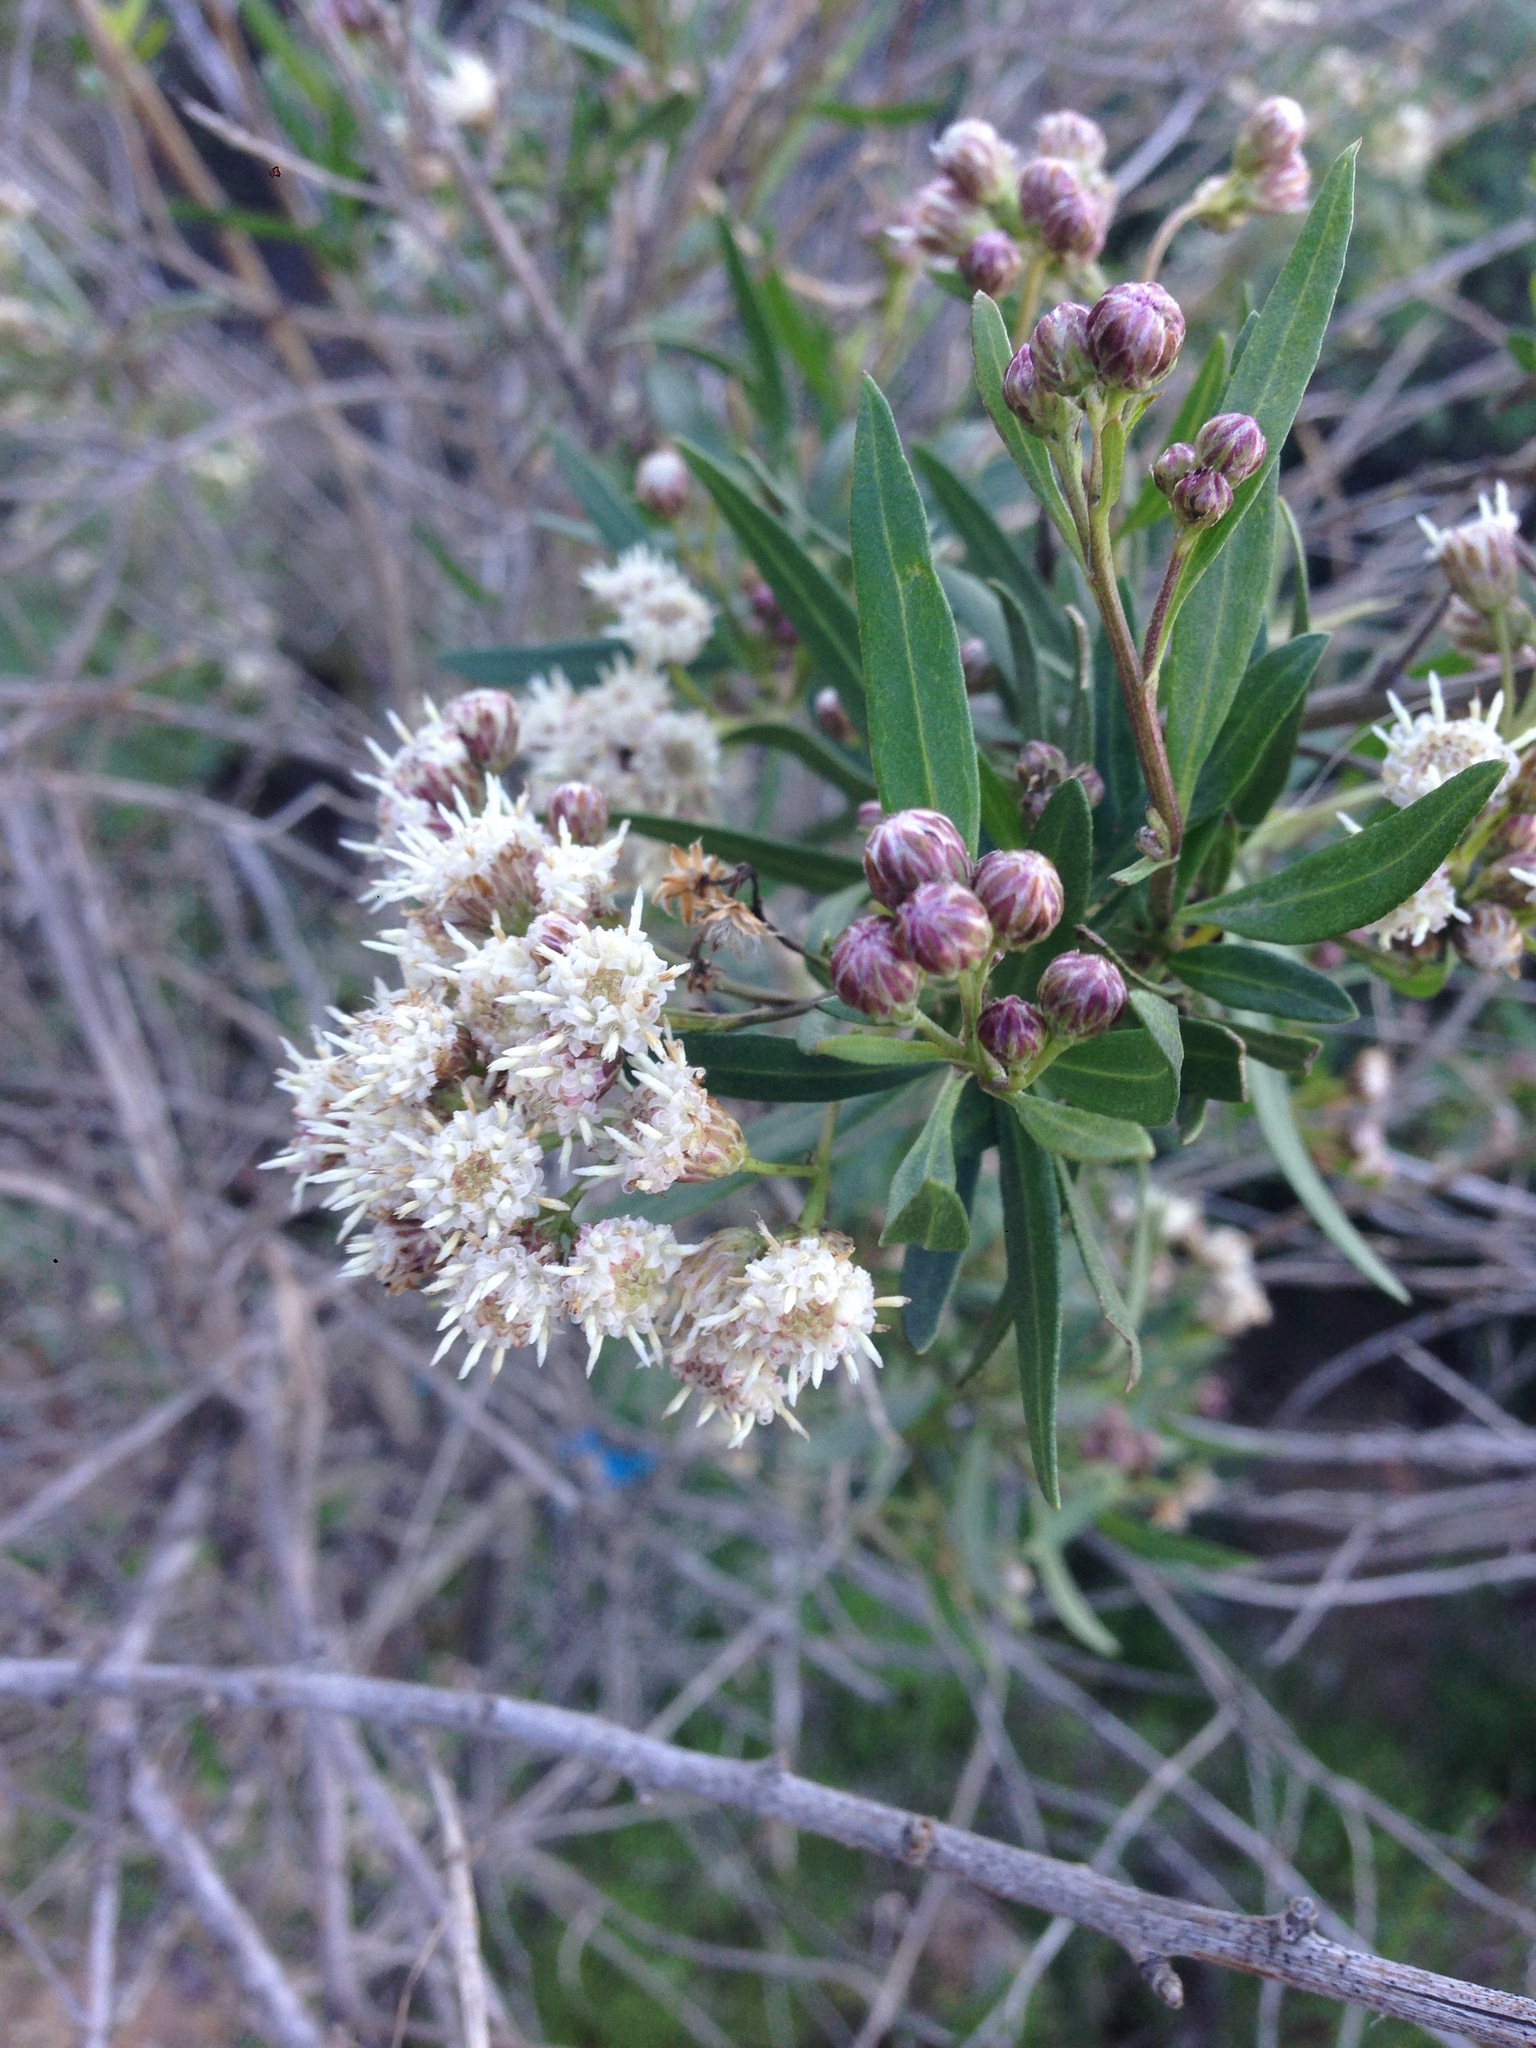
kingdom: Plantae
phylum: Tracheophyta
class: Magnoliopsida
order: Asterales
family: Asteraceae
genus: Baccharis
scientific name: Baccharis salicifolia
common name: Sticky baccharis
